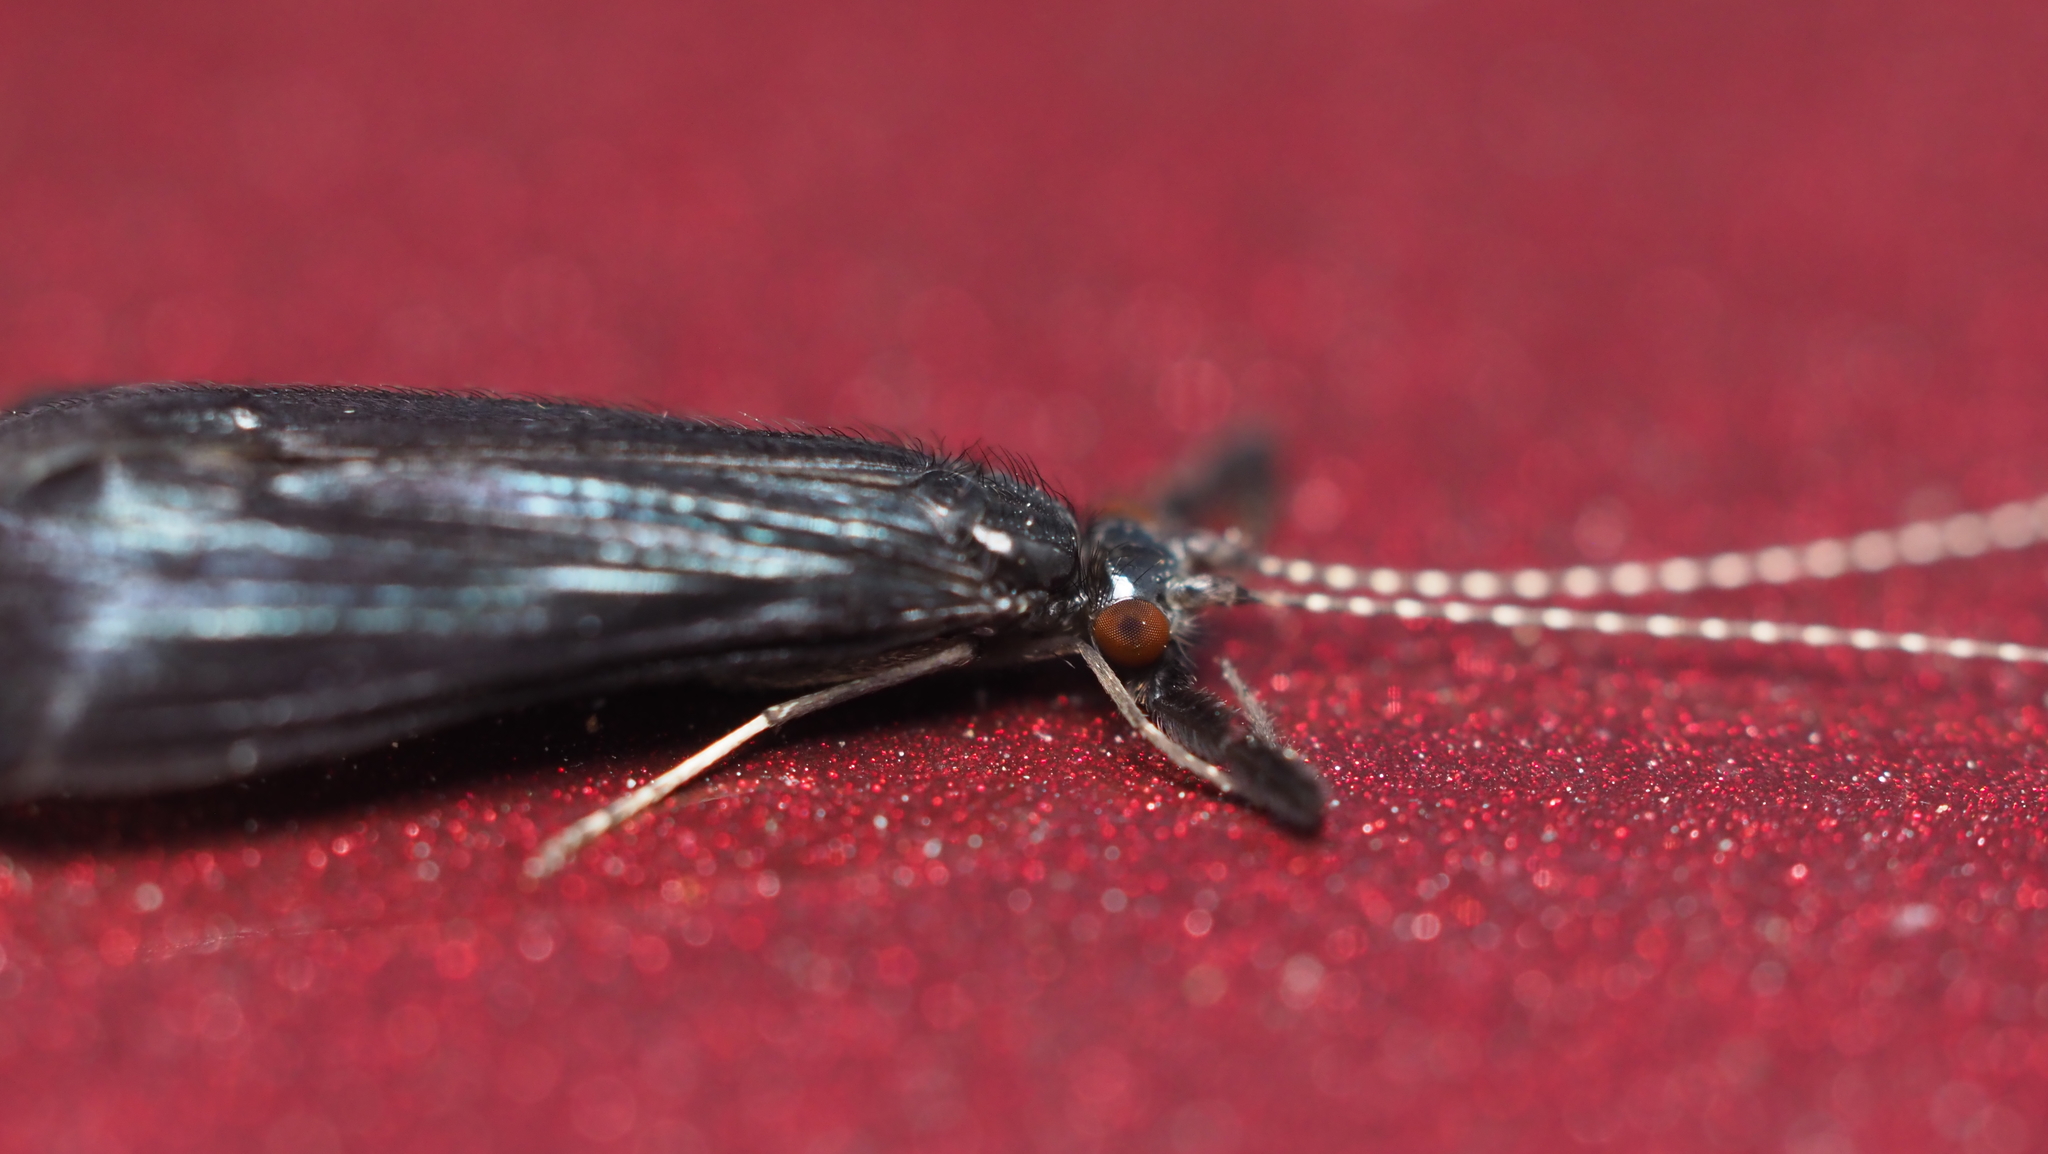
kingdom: Animalia
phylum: Arthropoda
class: Insecta
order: Trichoptera
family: Leptoceridae
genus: Mystacides
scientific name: Mystacides sepulchralis
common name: Black dancer caddisfly
